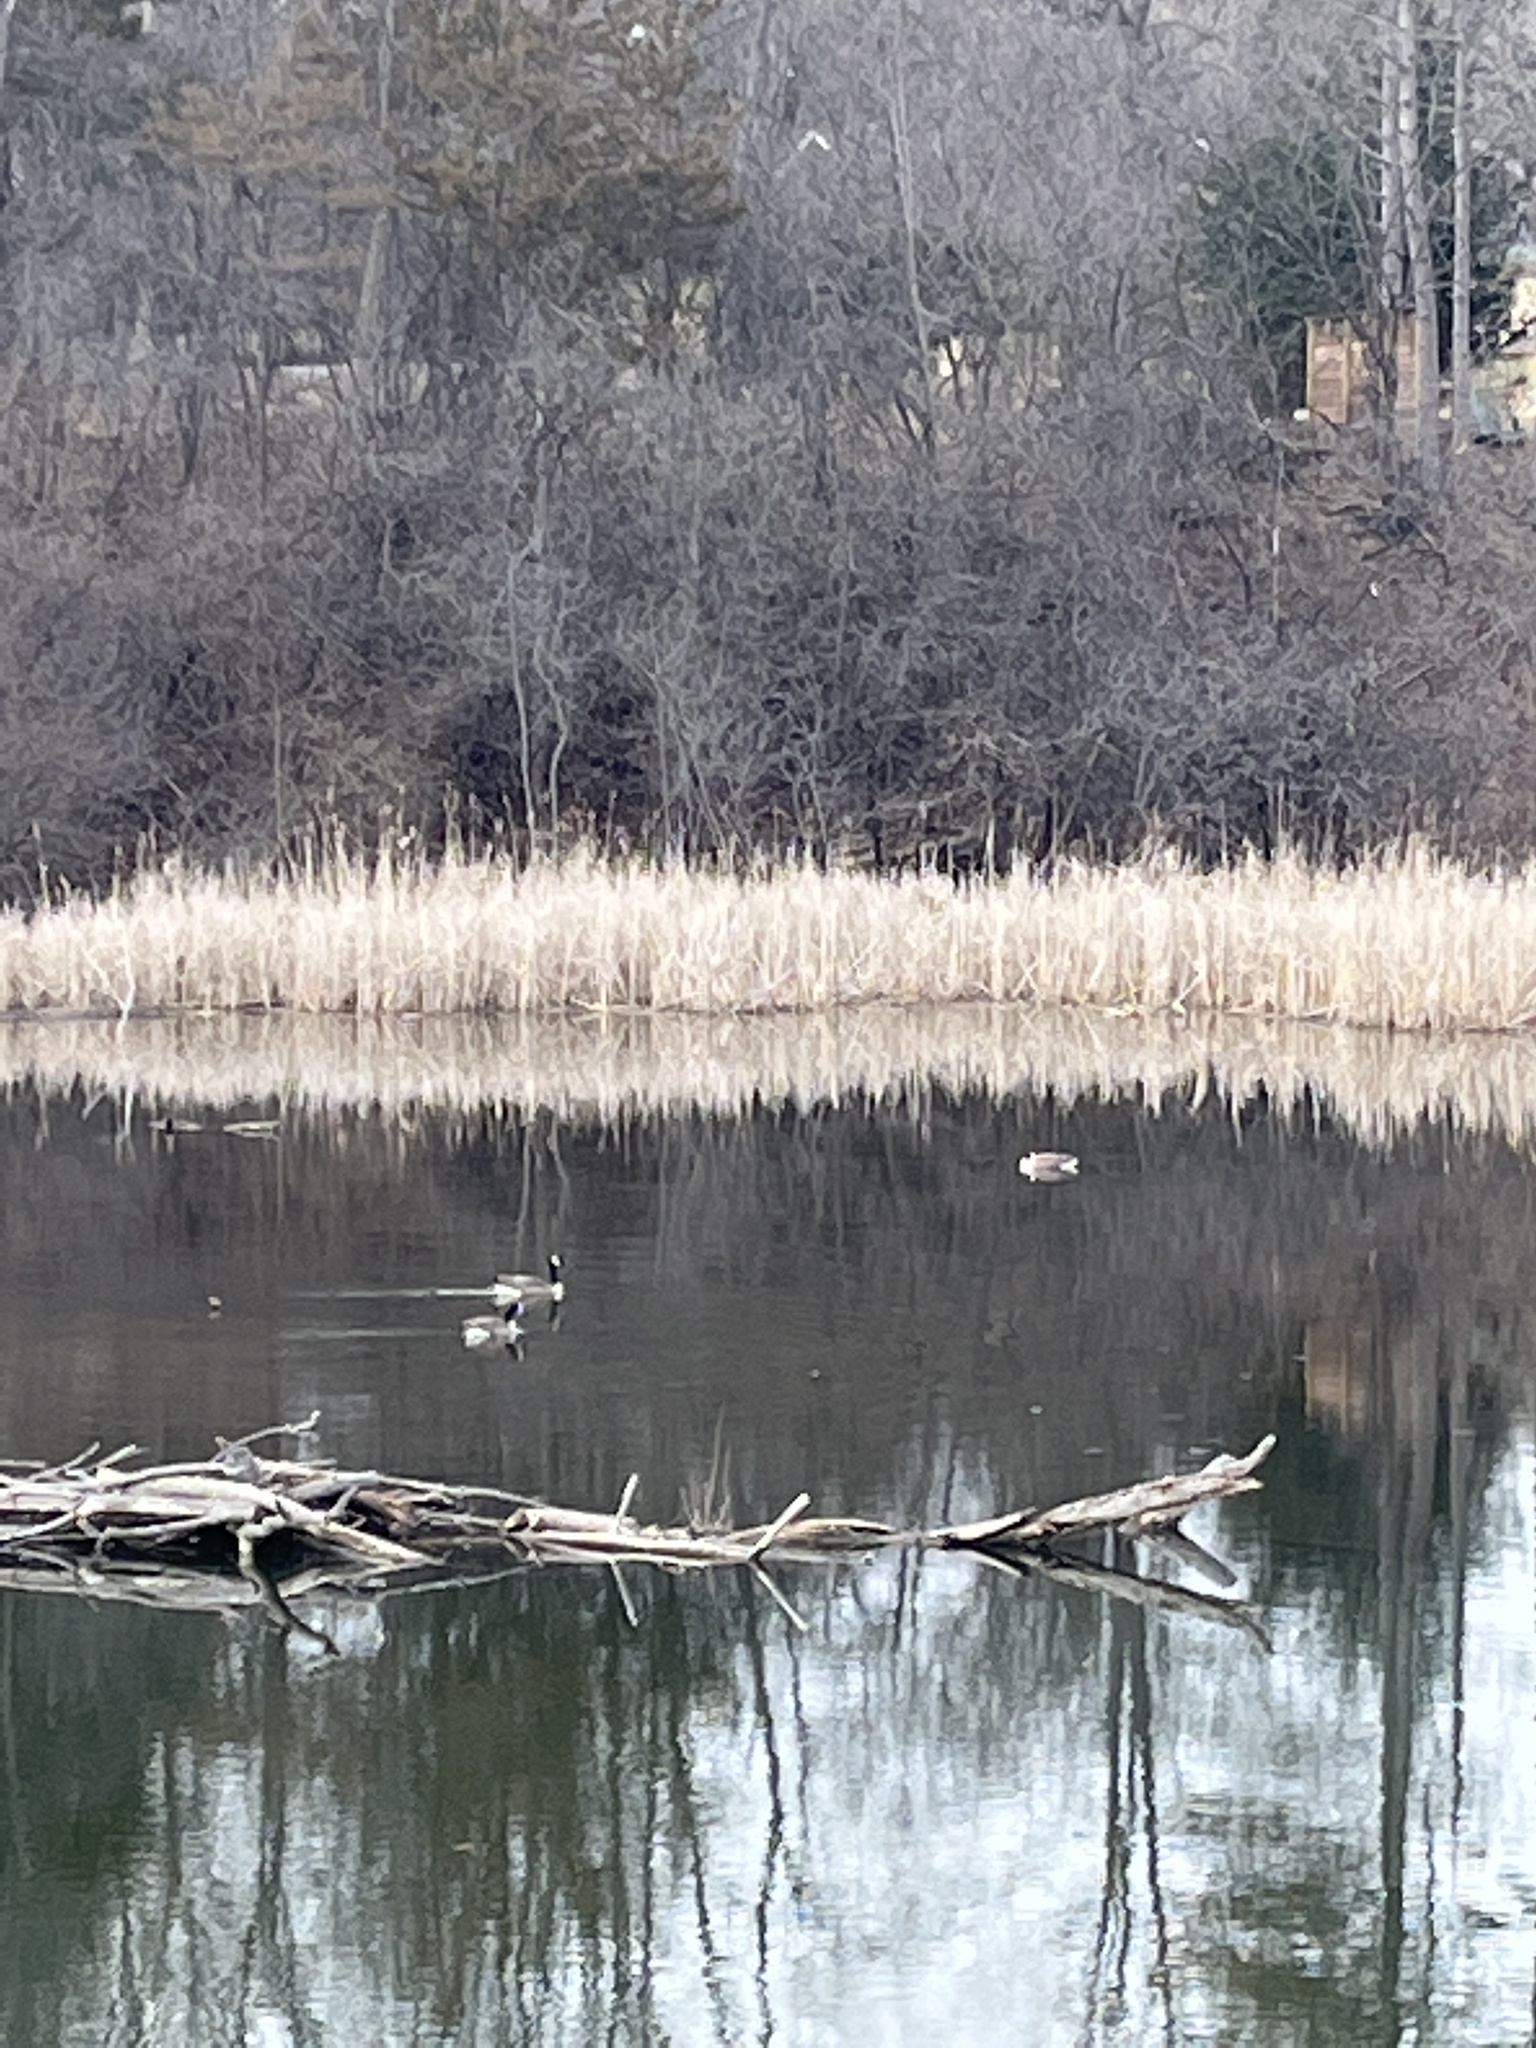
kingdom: Animalia
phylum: Chordata
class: Aves
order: Anseriformes
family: Anatidae
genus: Branta
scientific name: Branta canadensis
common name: Canada goose
